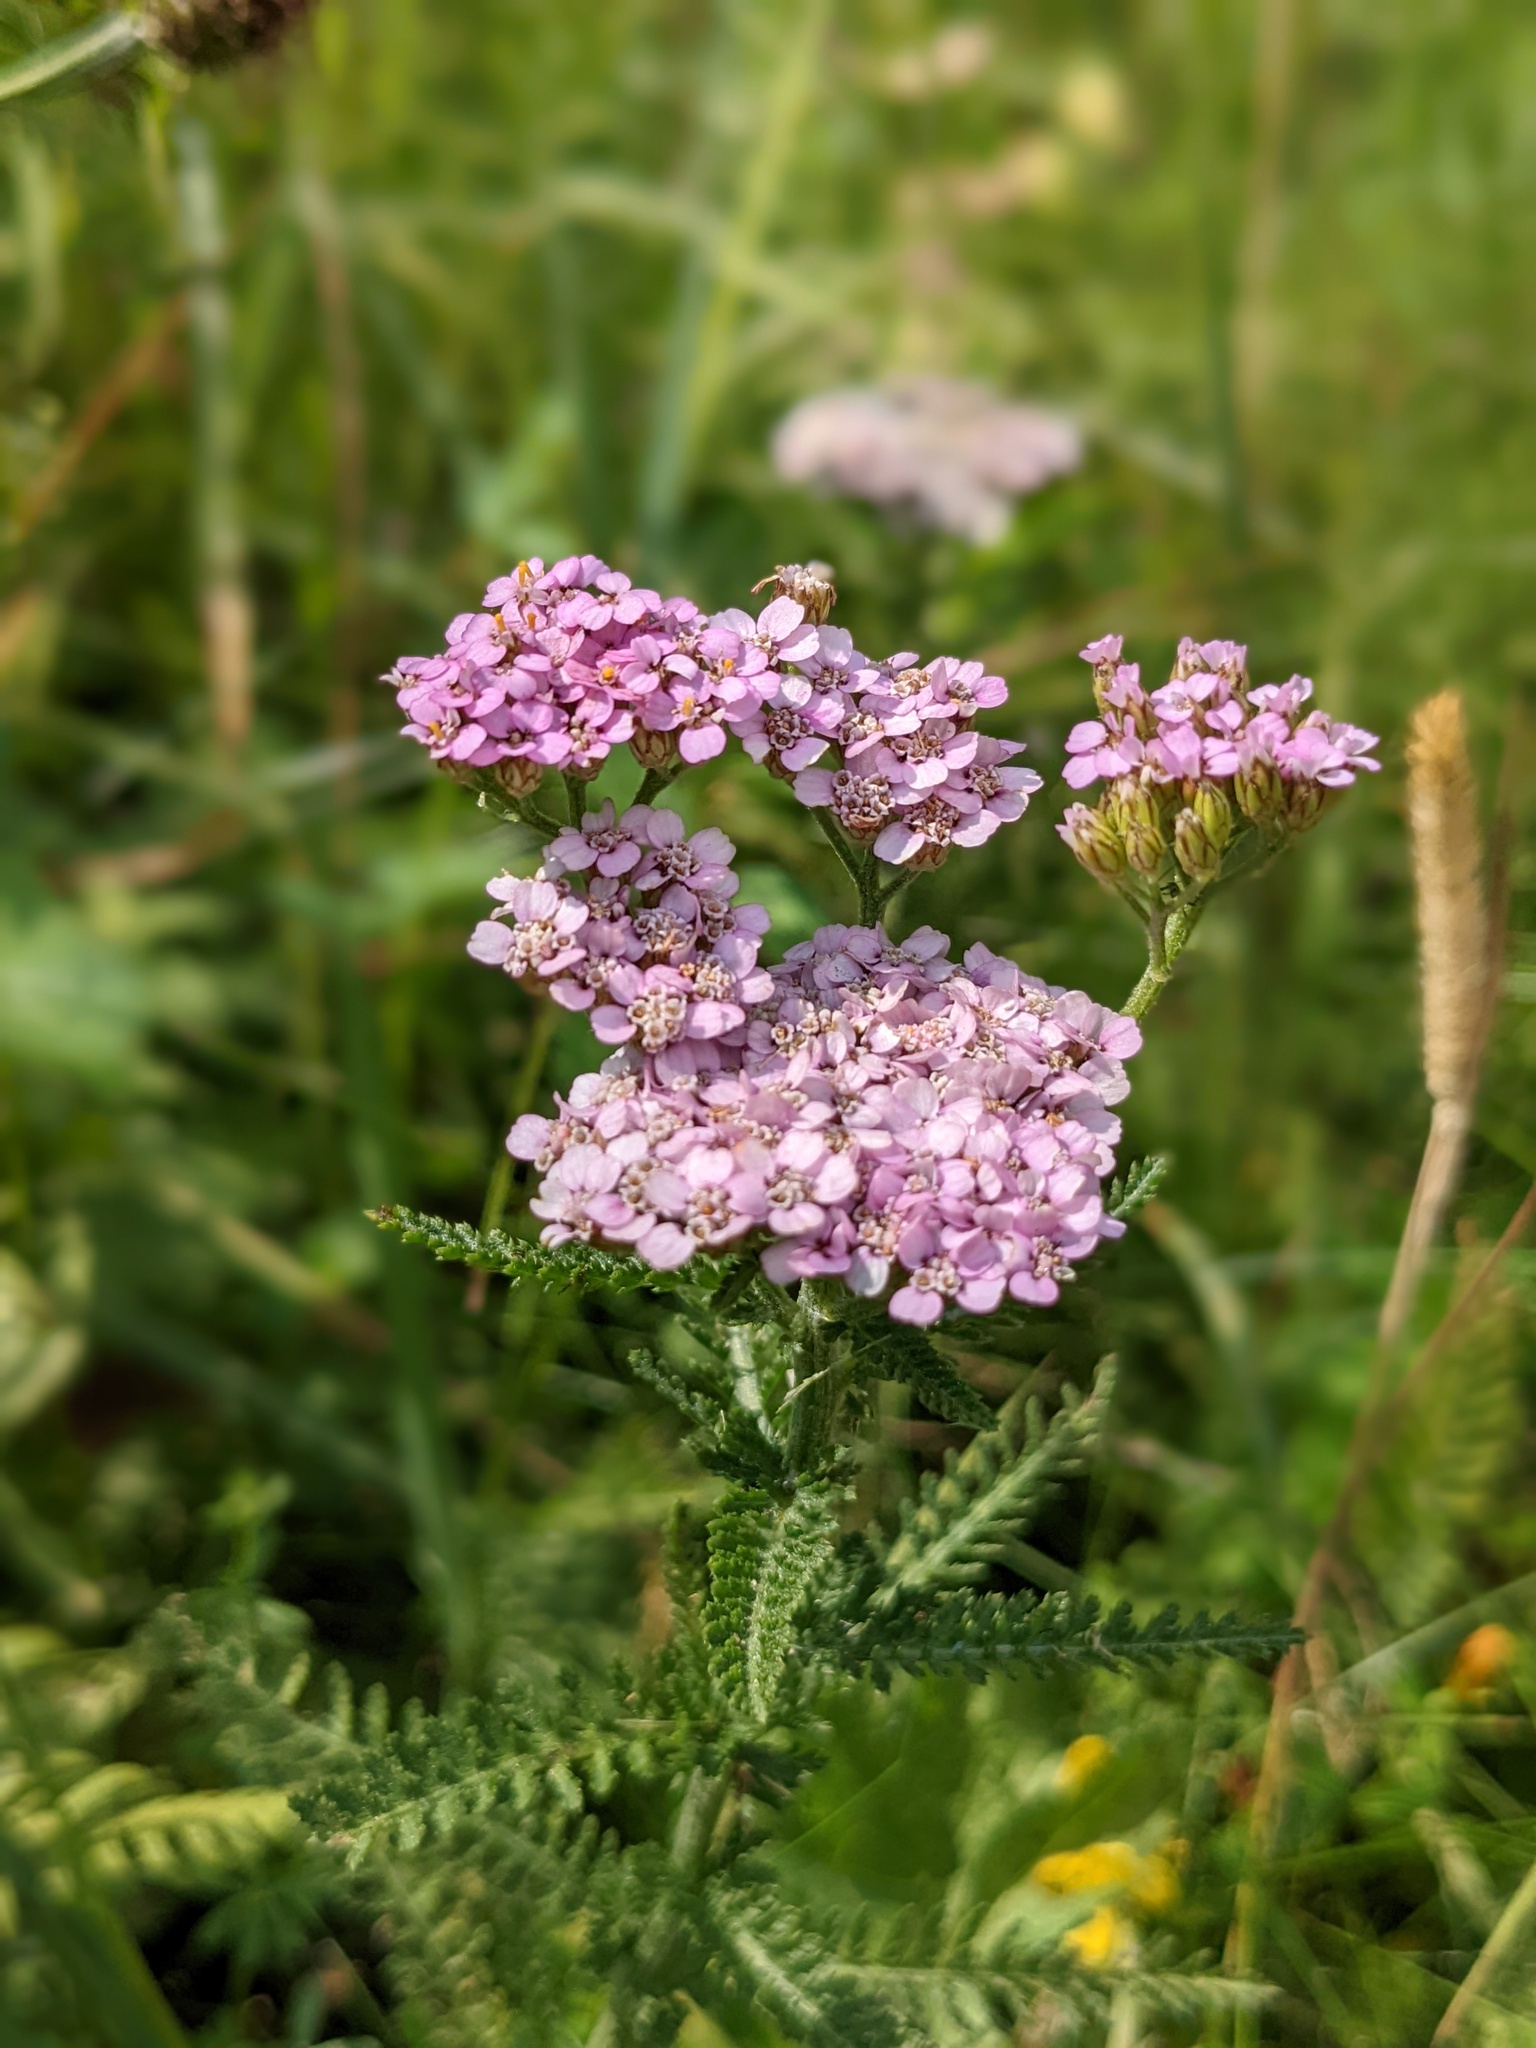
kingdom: Plantae
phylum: Tracheophyta
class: Magnoliopsida
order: Asterales
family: Asteraceae
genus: Achillea
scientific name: Achillea distans
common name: Tall yarrow
